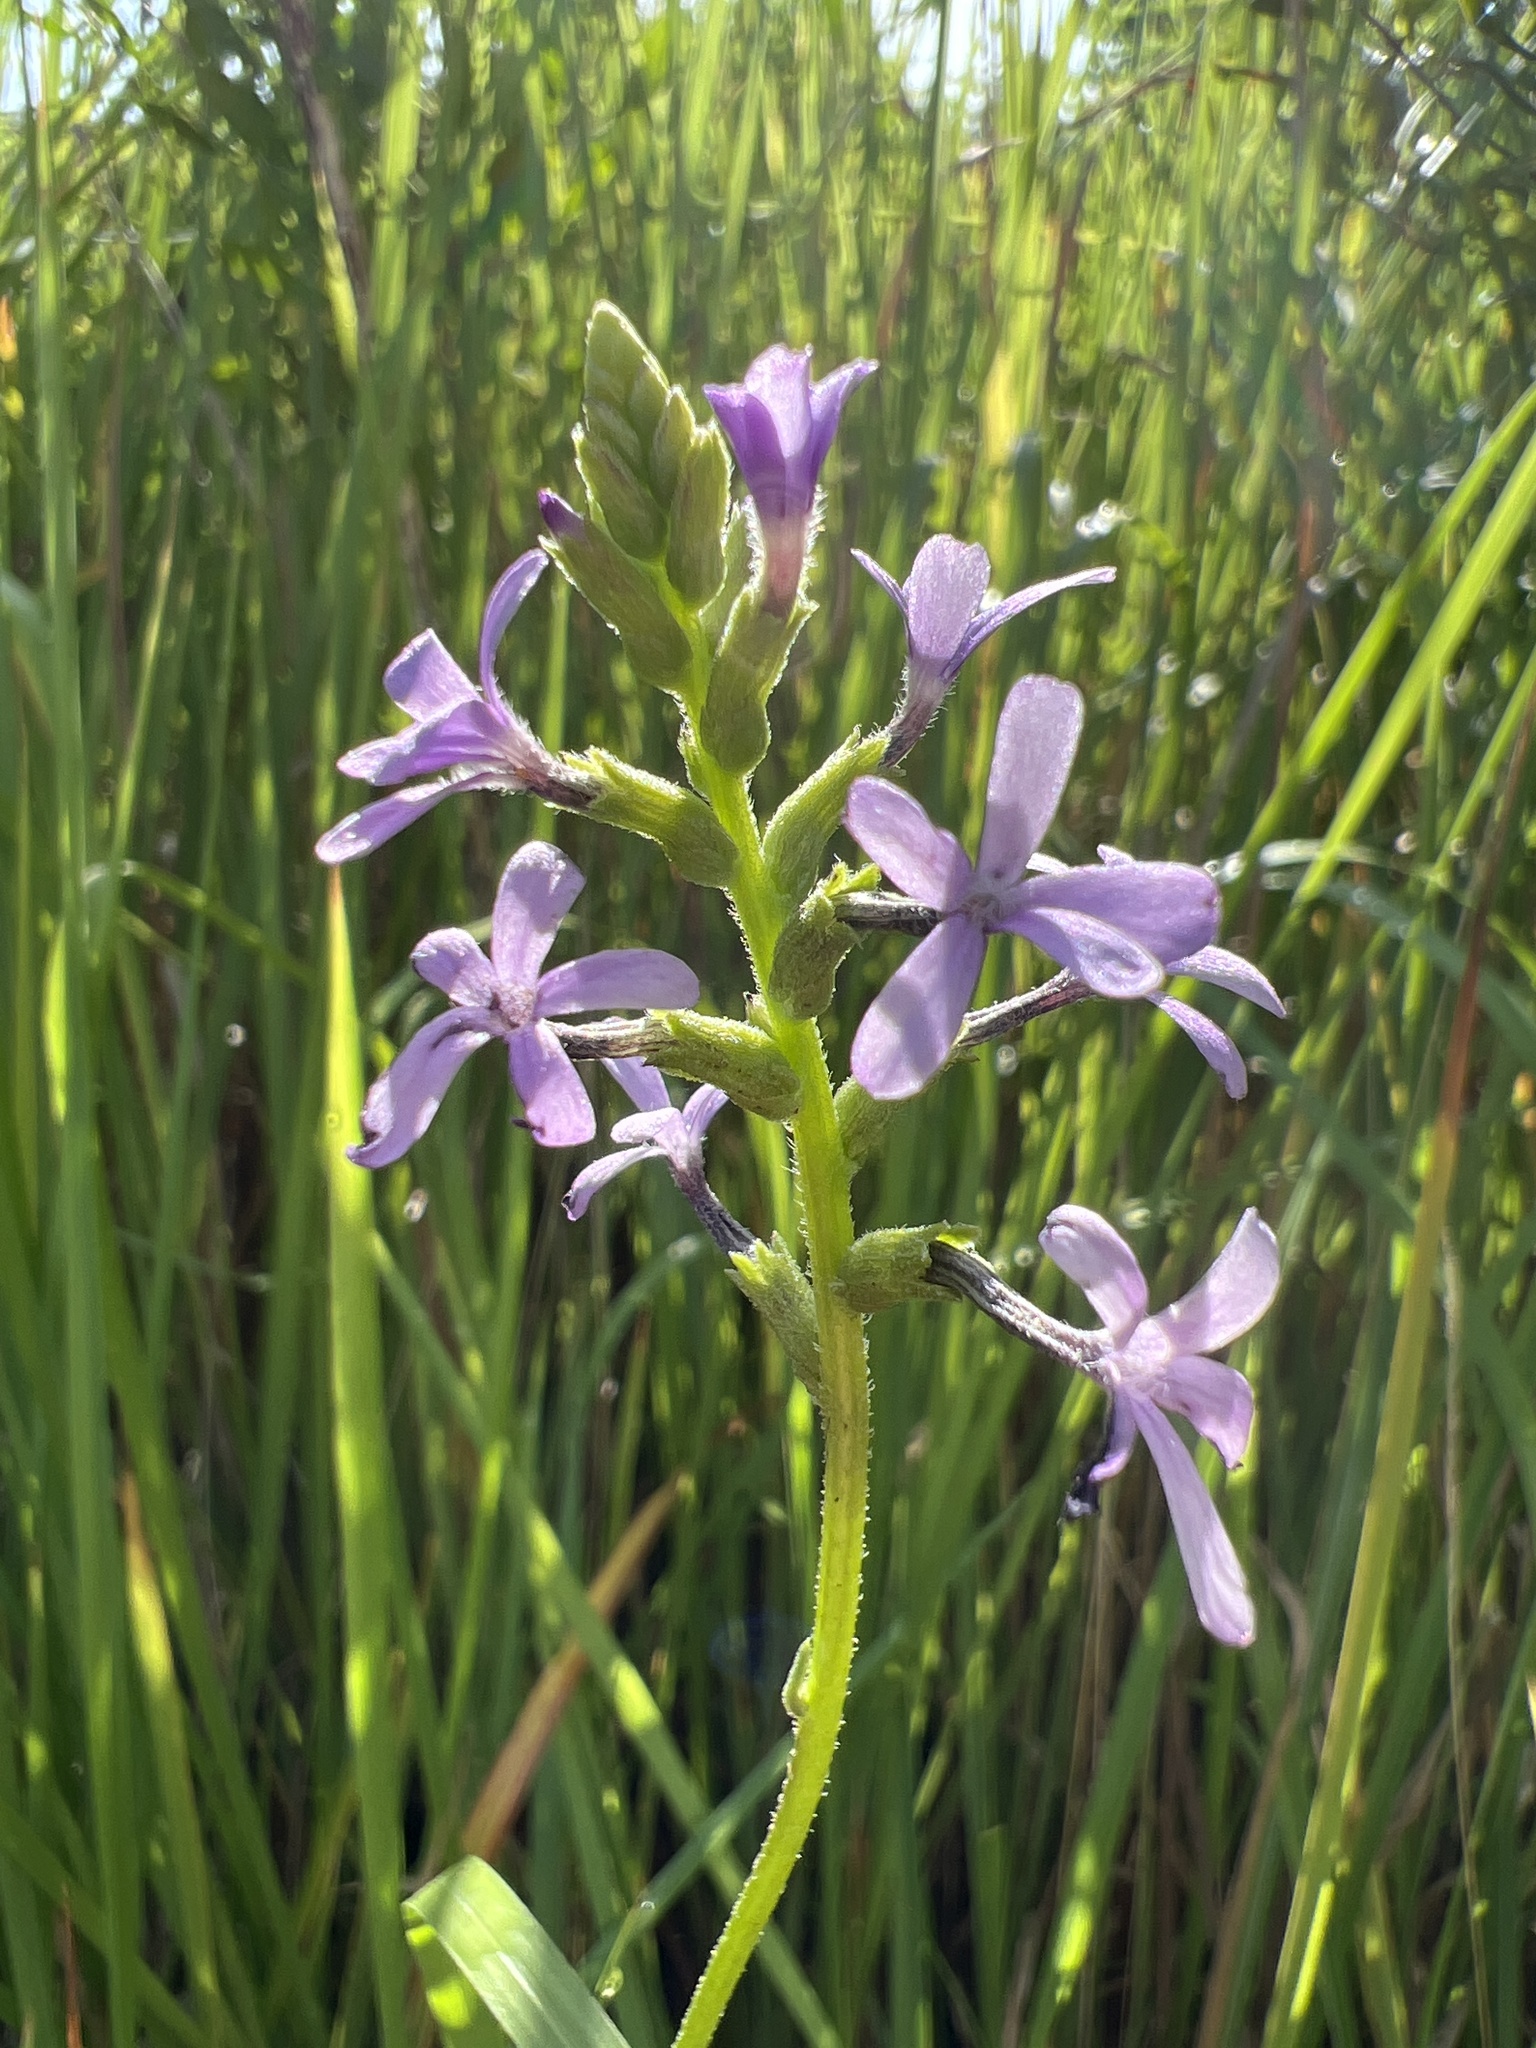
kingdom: Plantae
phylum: Tracheophyta
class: Magnoliopsida
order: Lamiales
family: Orobanchaceae
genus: Buchnera
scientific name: Buchnera floridana
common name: Florida bluehearts
